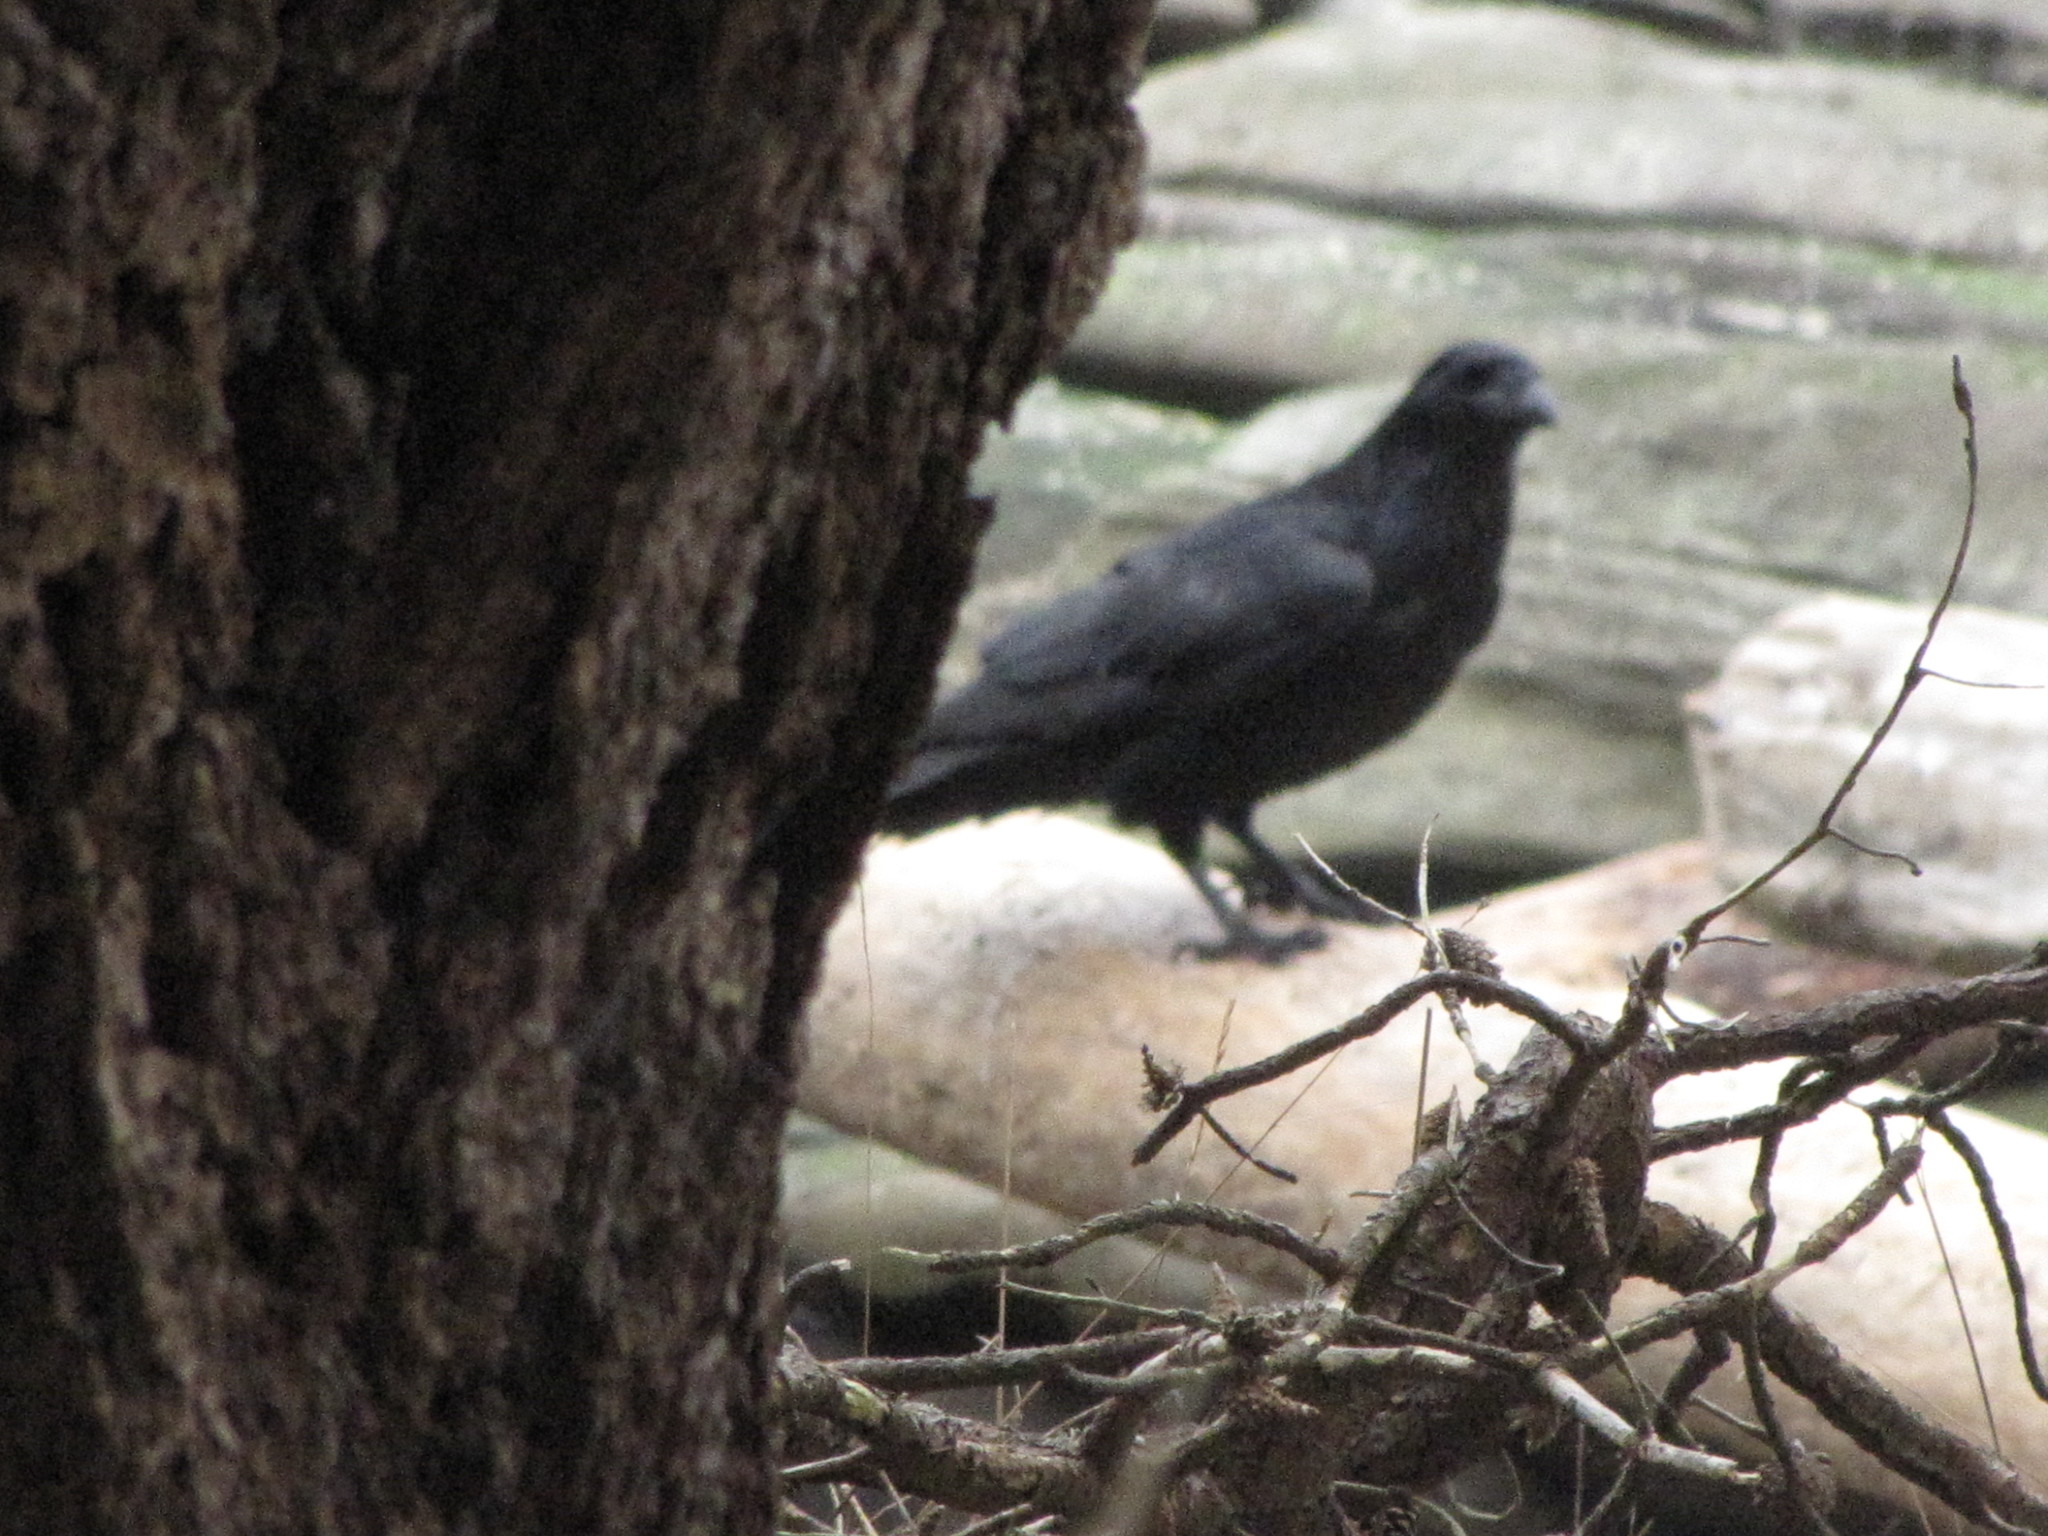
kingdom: Animalia
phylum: Chordata
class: Aves
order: Passeriformes
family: Corvidae
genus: Corvus
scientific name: Corvus corax
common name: Common raven
